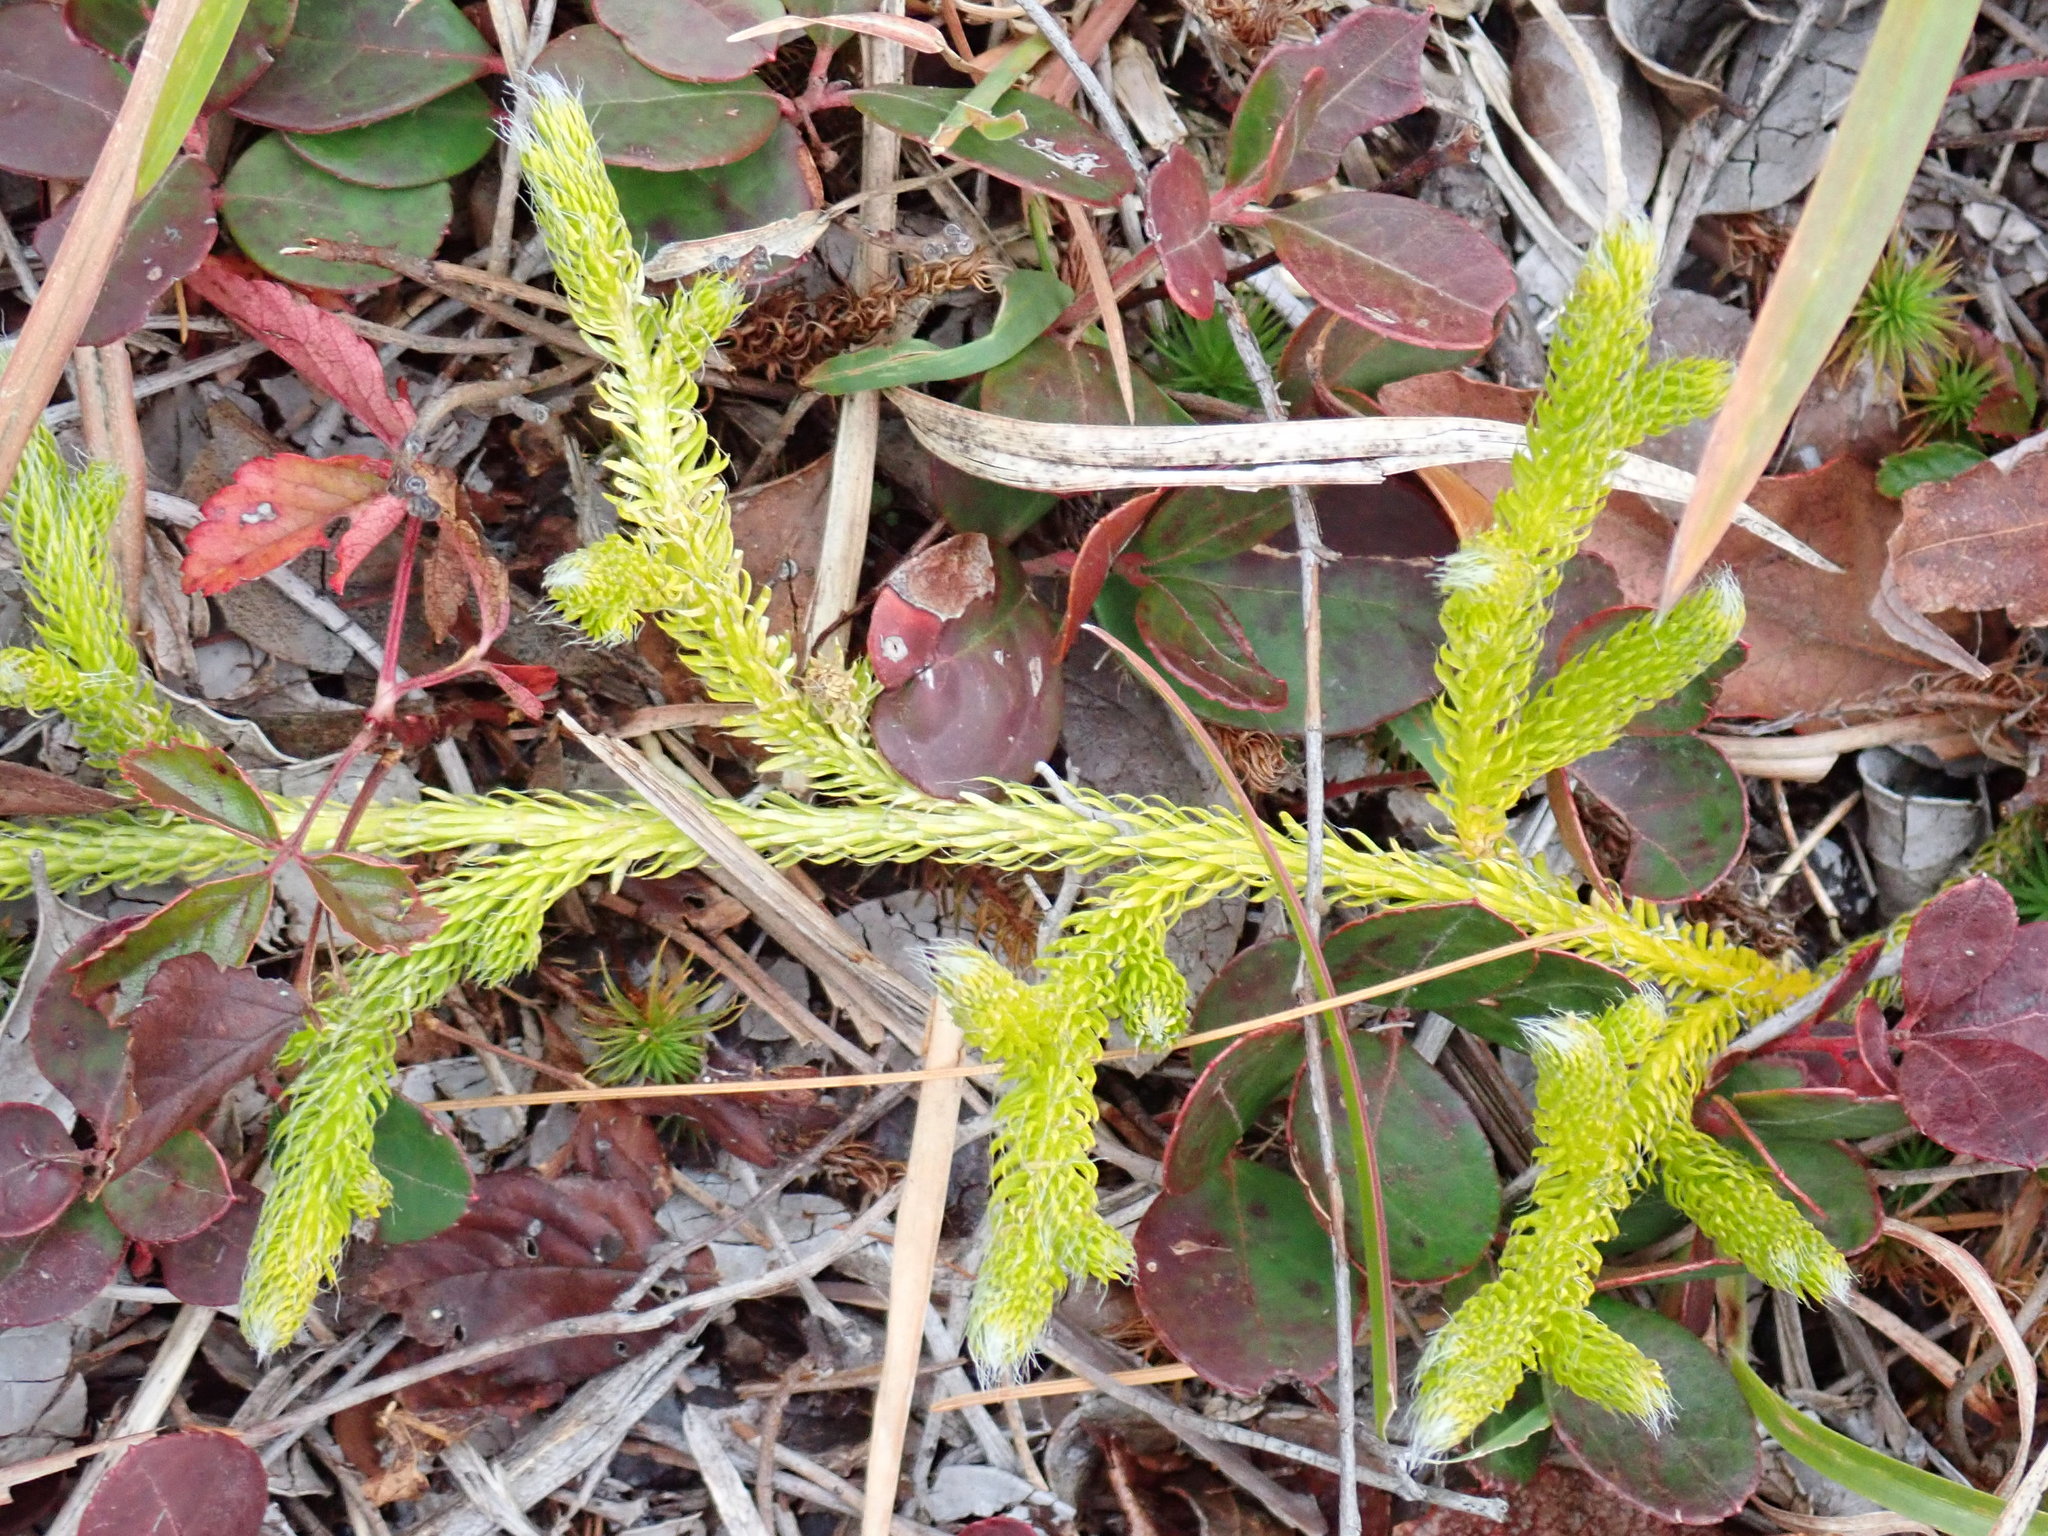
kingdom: Plantae
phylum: Tracheophyta
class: Lycopodiopsida
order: Lycopodiales
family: Lycopodiaceae
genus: Lycopodium
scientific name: Lycopodium clavatum
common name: Stag's-horn clubmoss
